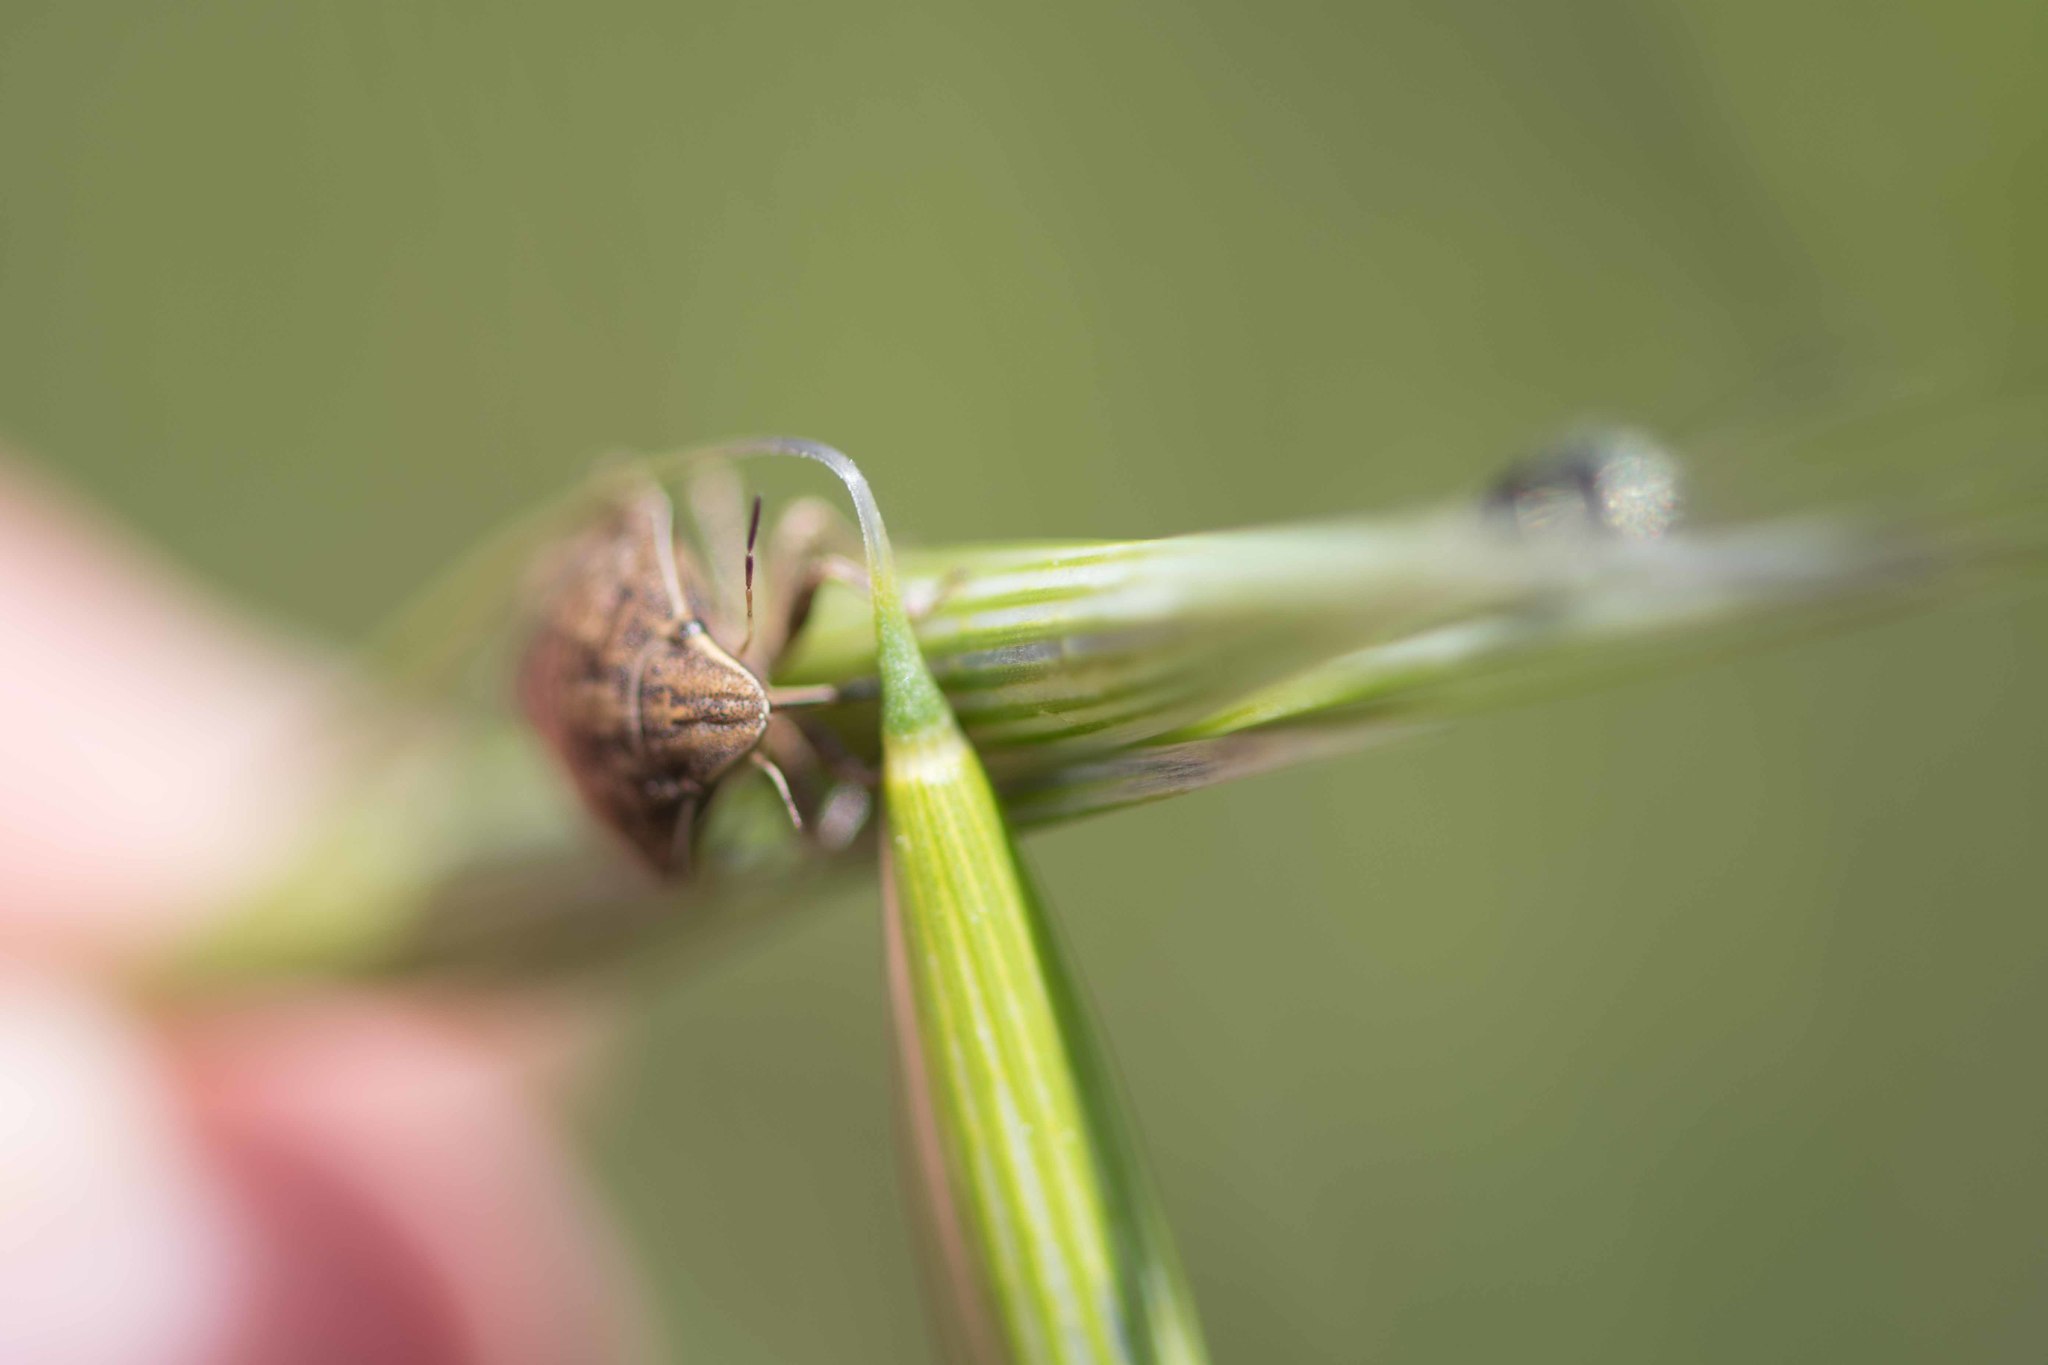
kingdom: Animalia
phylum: Arthropoda
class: Insecta
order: Hemiptera
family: Scutelleridae
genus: Eurygaster
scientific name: Eurygaster maura
